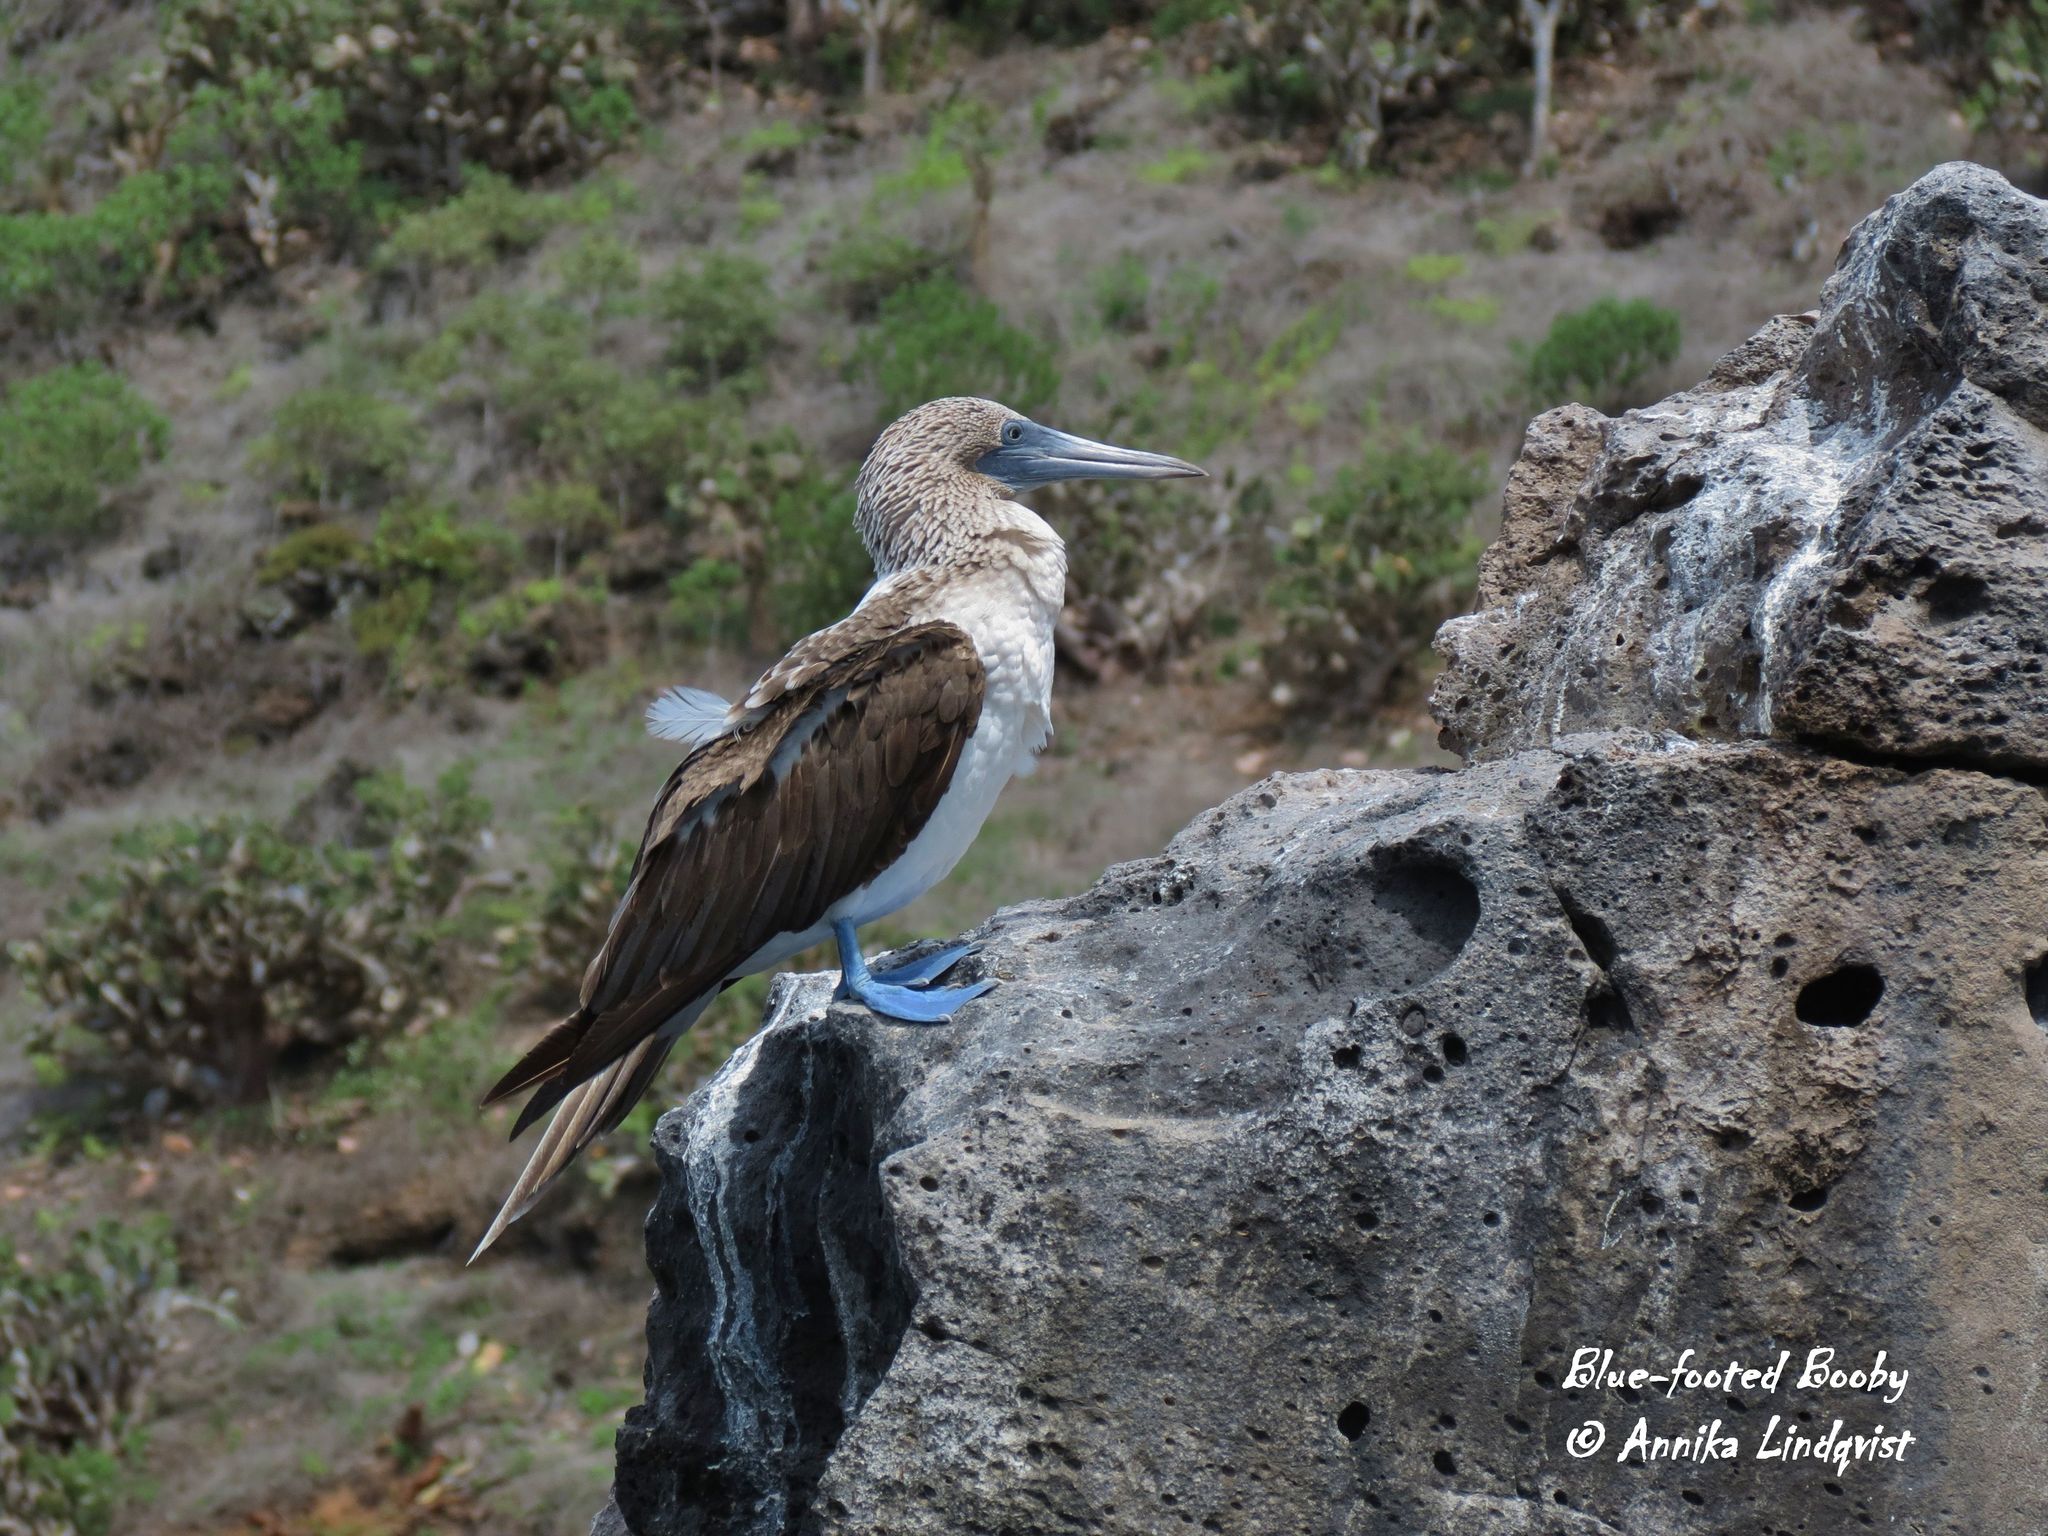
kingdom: Animalia
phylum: Chordata
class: Aves
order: Suliformes
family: Sulidae
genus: Sula
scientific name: Sula nebouxii
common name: Blue-footed booby
